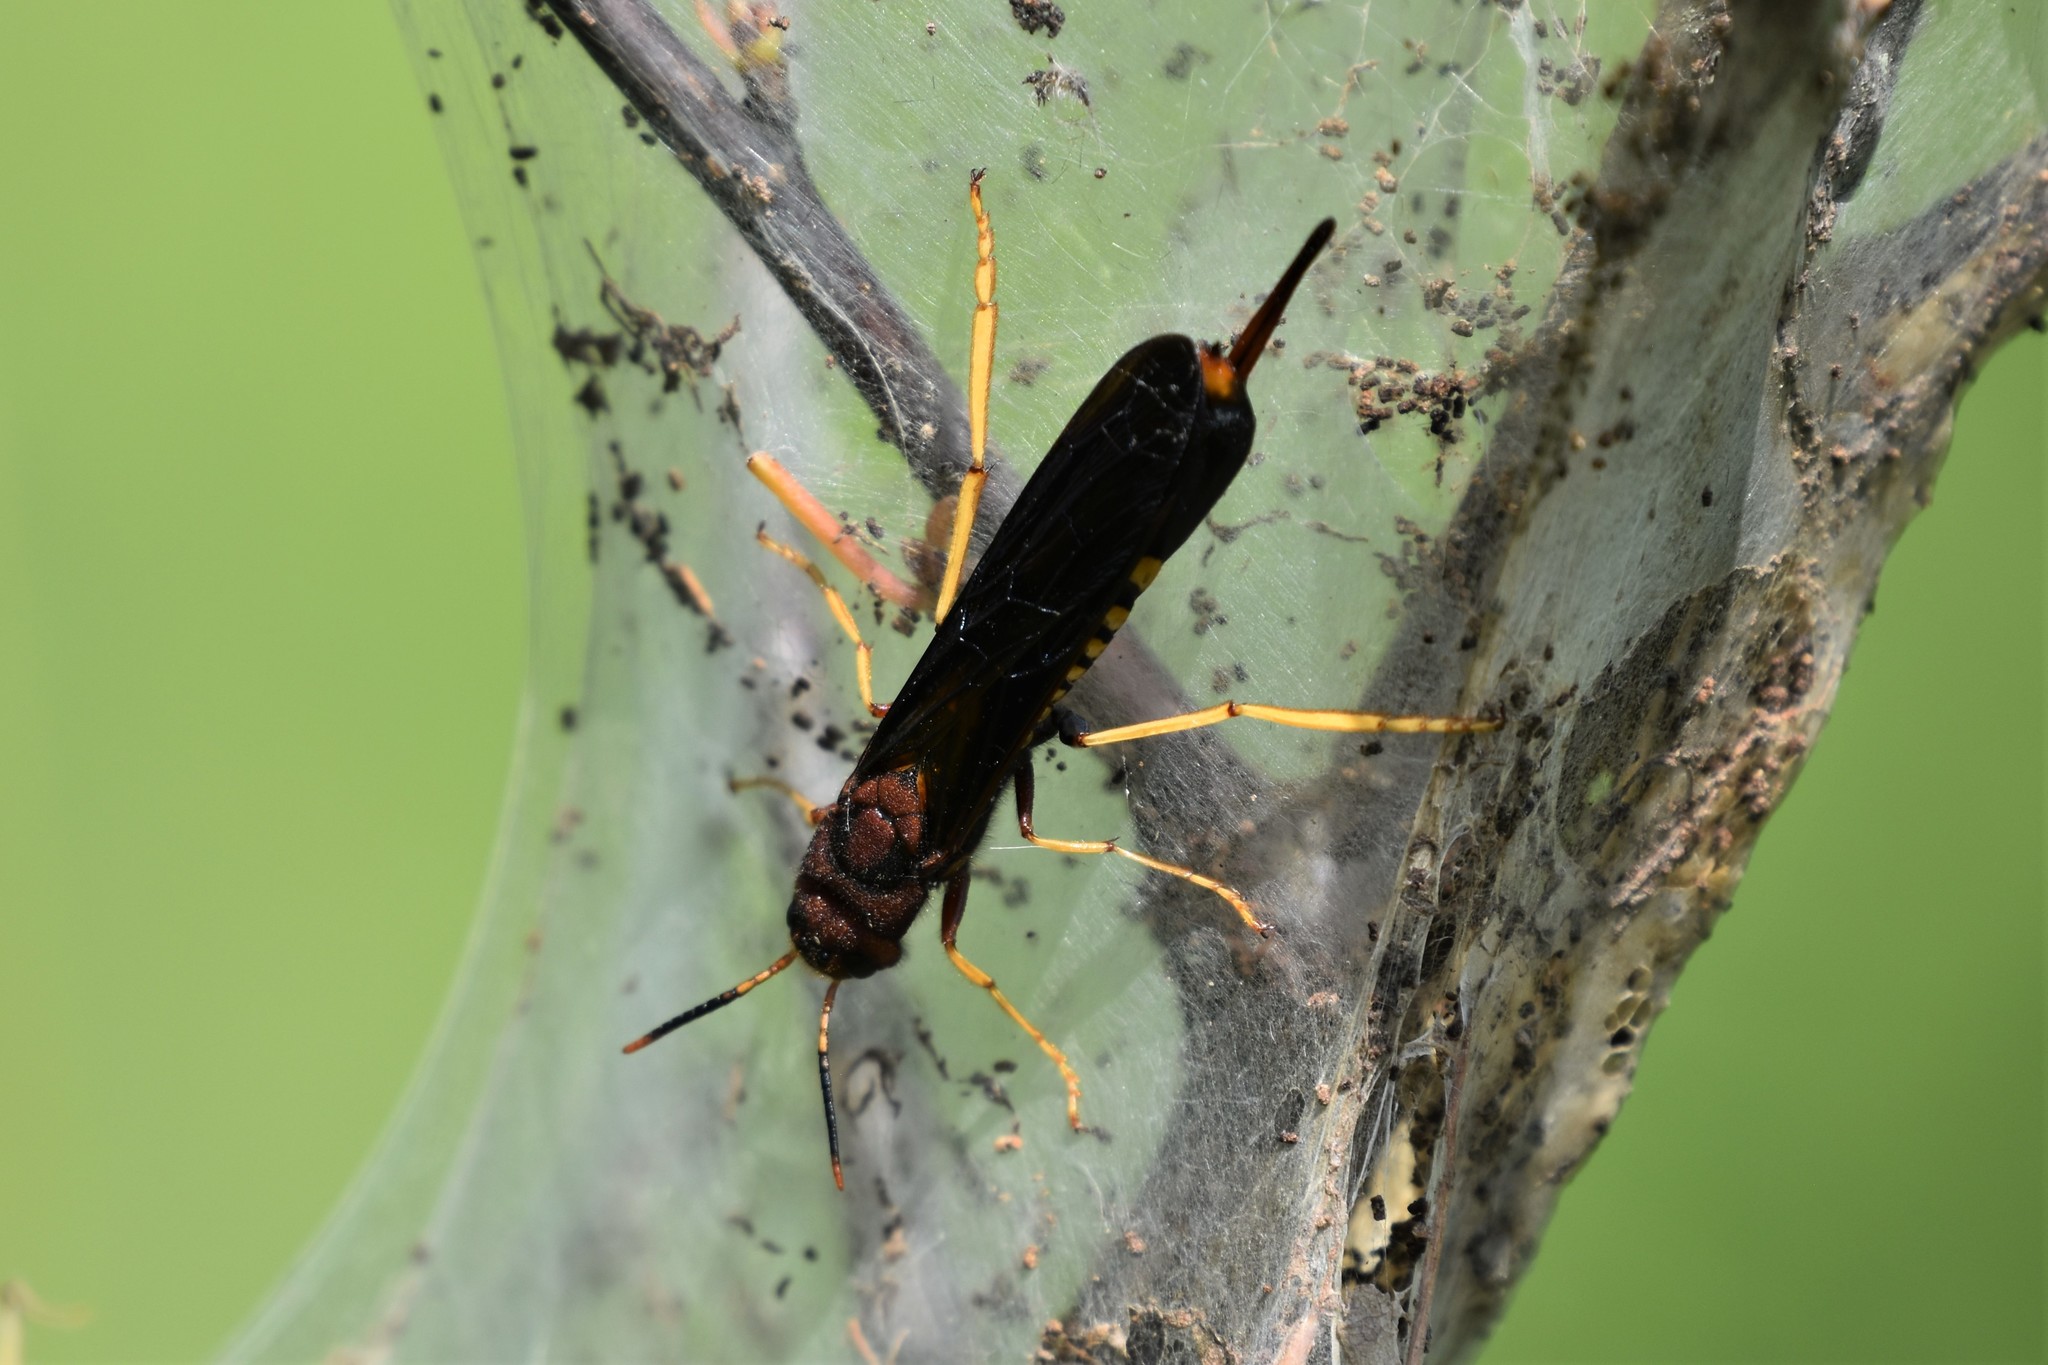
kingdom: Animalia
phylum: Arthropoda
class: Insecta
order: Hymenoptera
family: Siricidae
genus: Tremex
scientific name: Tremex columba
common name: Wasp
